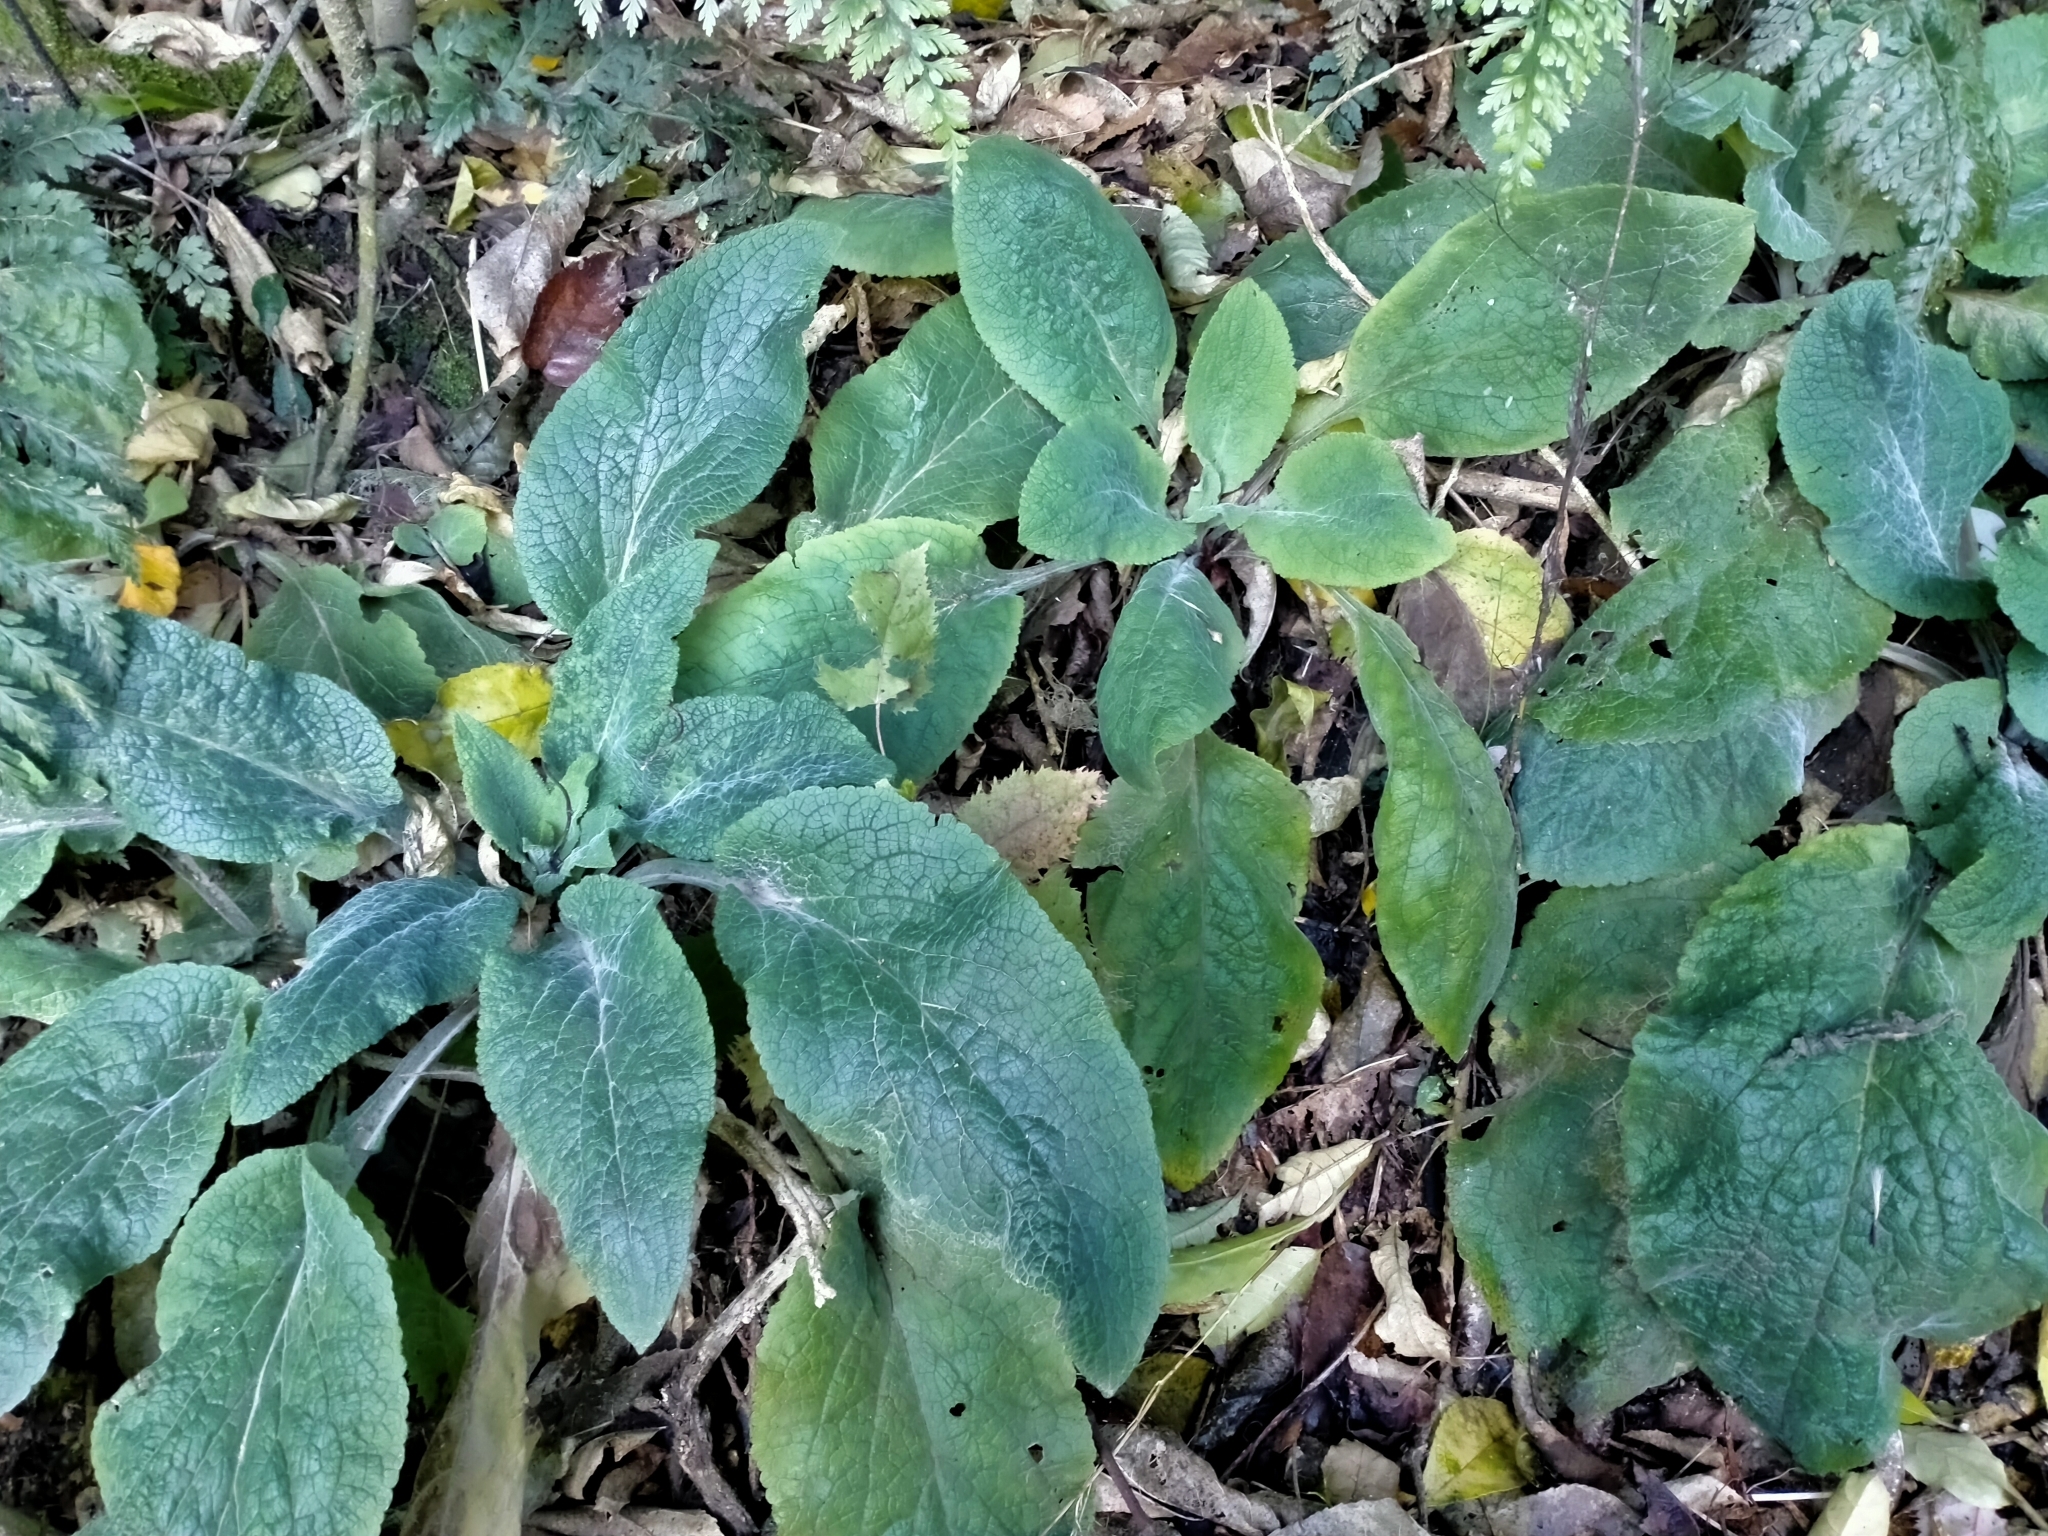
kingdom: Plantae
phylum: Tracheophyta
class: Magnoliopsida
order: Lamiales
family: Plantaginaceae
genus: Digitalis
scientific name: Digitalis purpurea
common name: Foxglove
